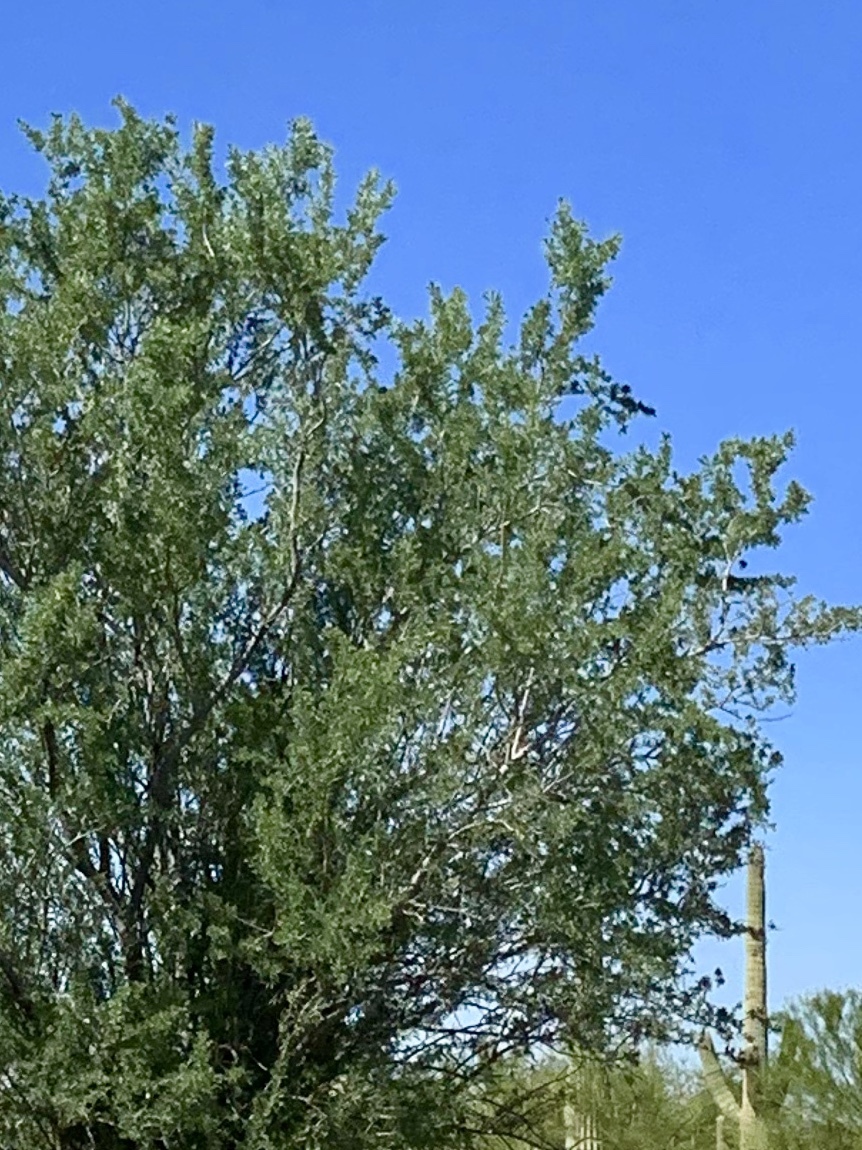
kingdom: Plantae
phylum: Tracheophyta
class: Magnoliopsida
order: Fabales
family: Fabaceae
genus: Olneya
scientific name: Olneya tesota
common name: Desert ironwood
